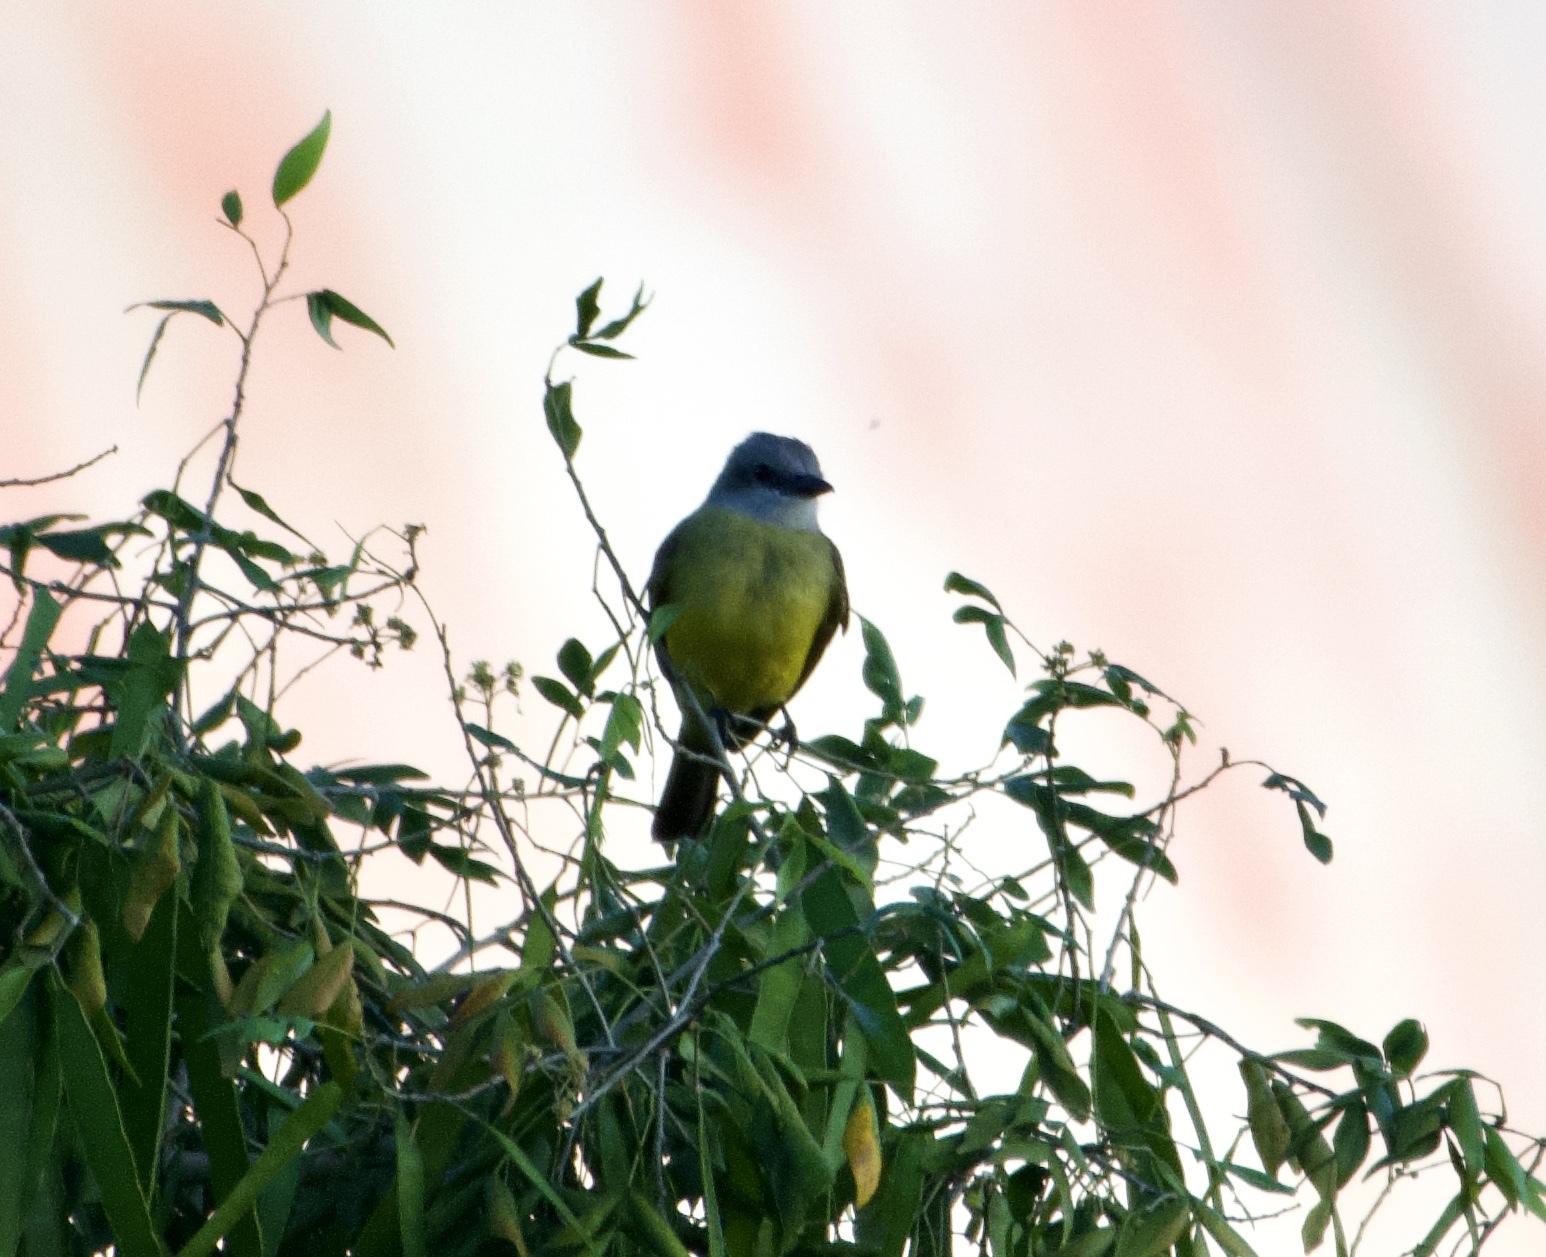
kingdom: Animalia
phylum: Chordata
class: Aves
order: Passeriformes
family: Tyrannidae
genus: Tyrannus
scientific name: Tyrannus melancholicus
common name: Tropical kingbird
